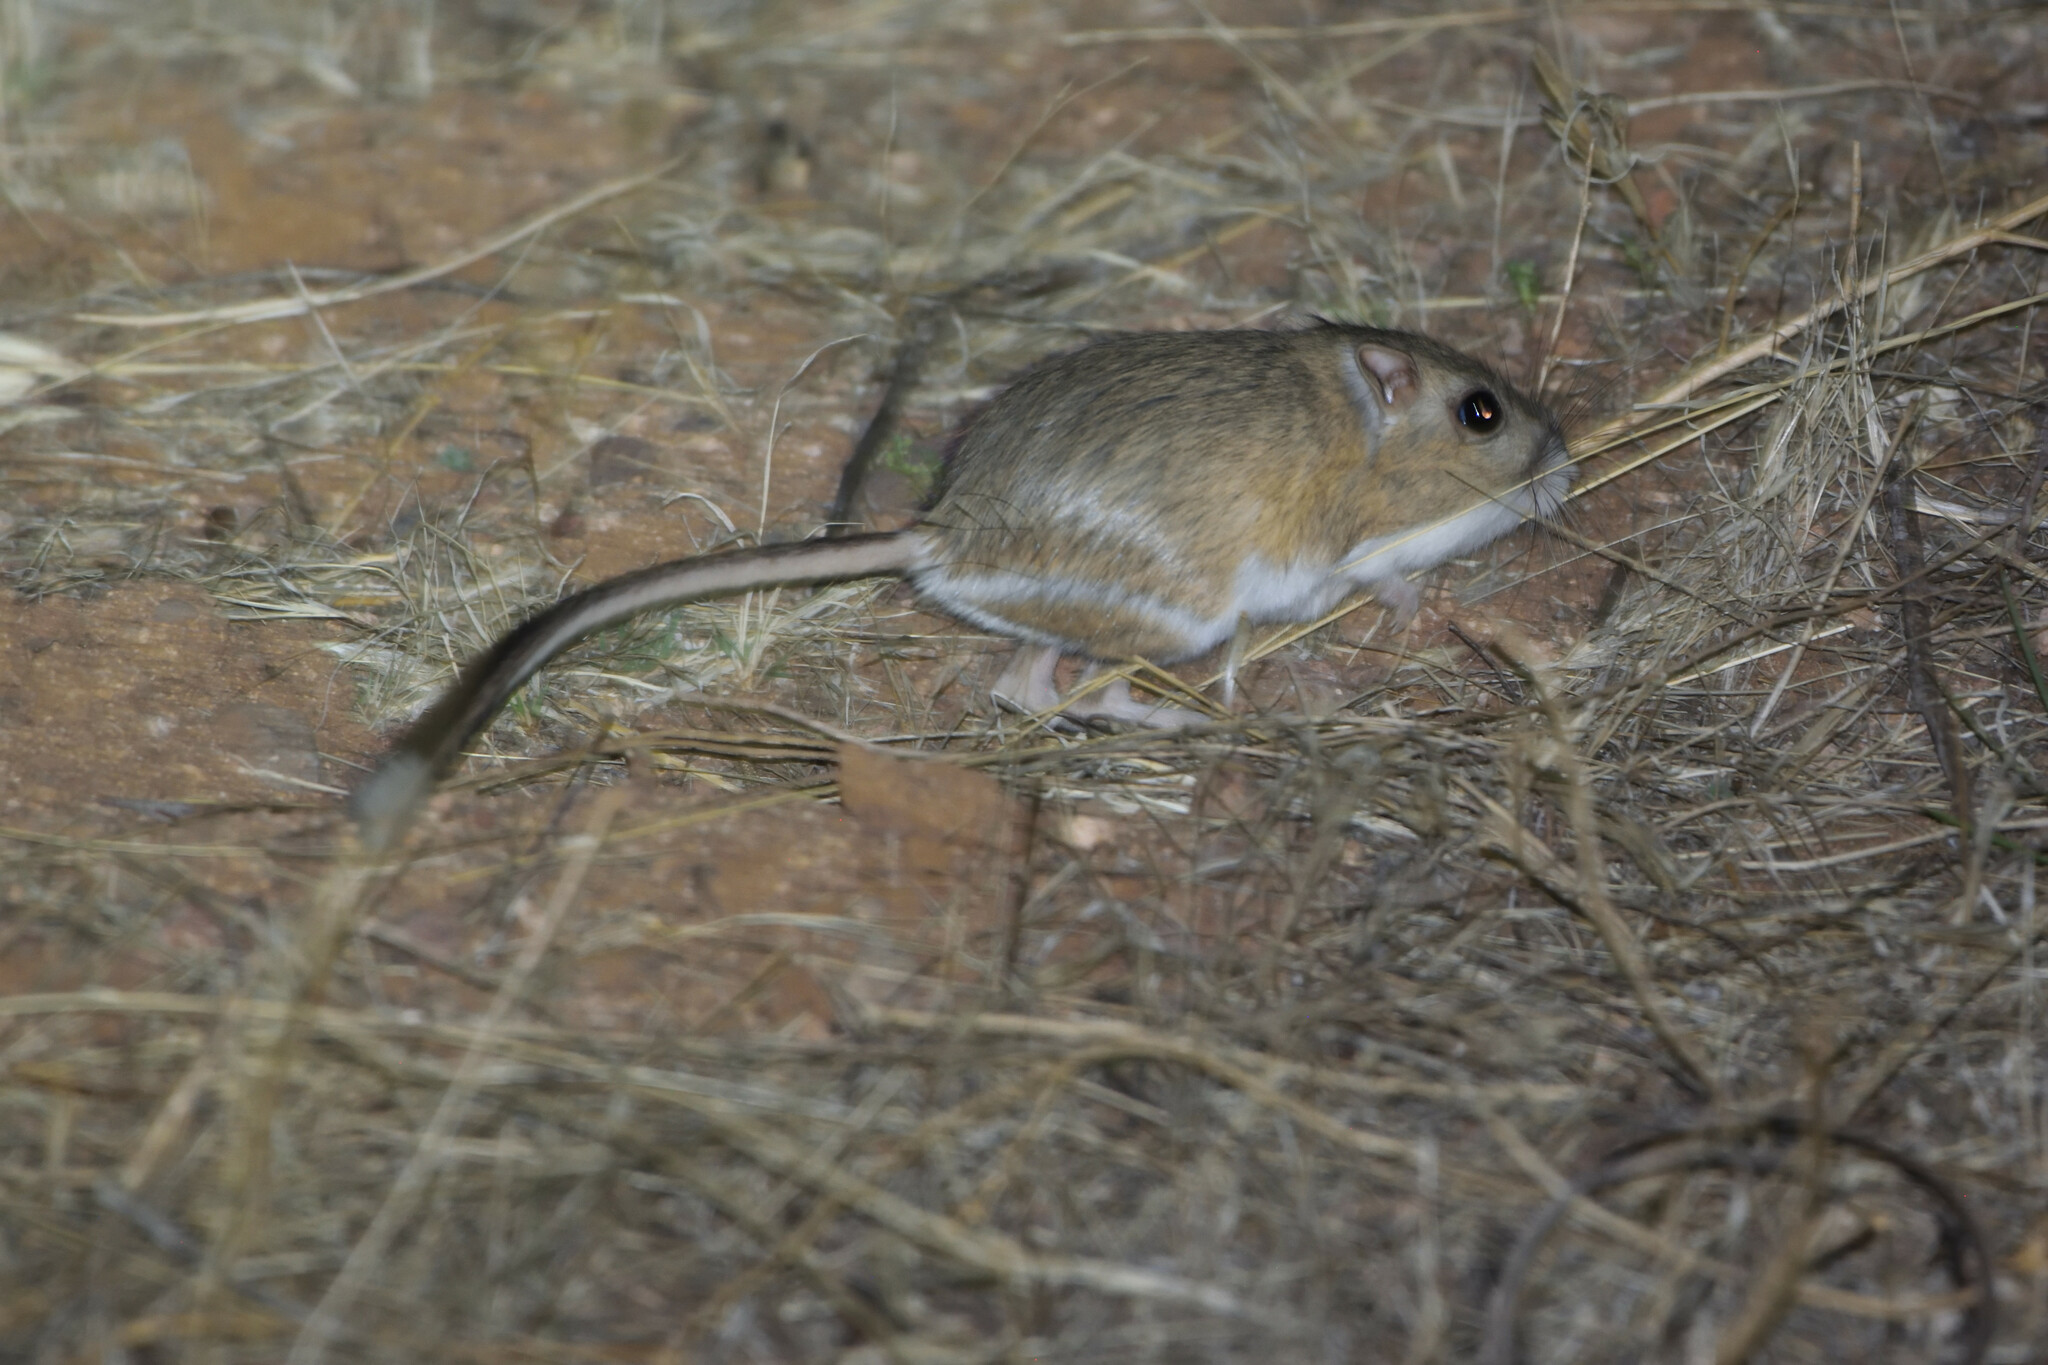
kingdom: Animalia
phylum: Chordata
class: Mammalia
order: Rodentia
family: Heteromyidae
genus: Dipodomys
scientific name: Dipodomys spectabilis
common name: Banner-tailed kangaroo rat
